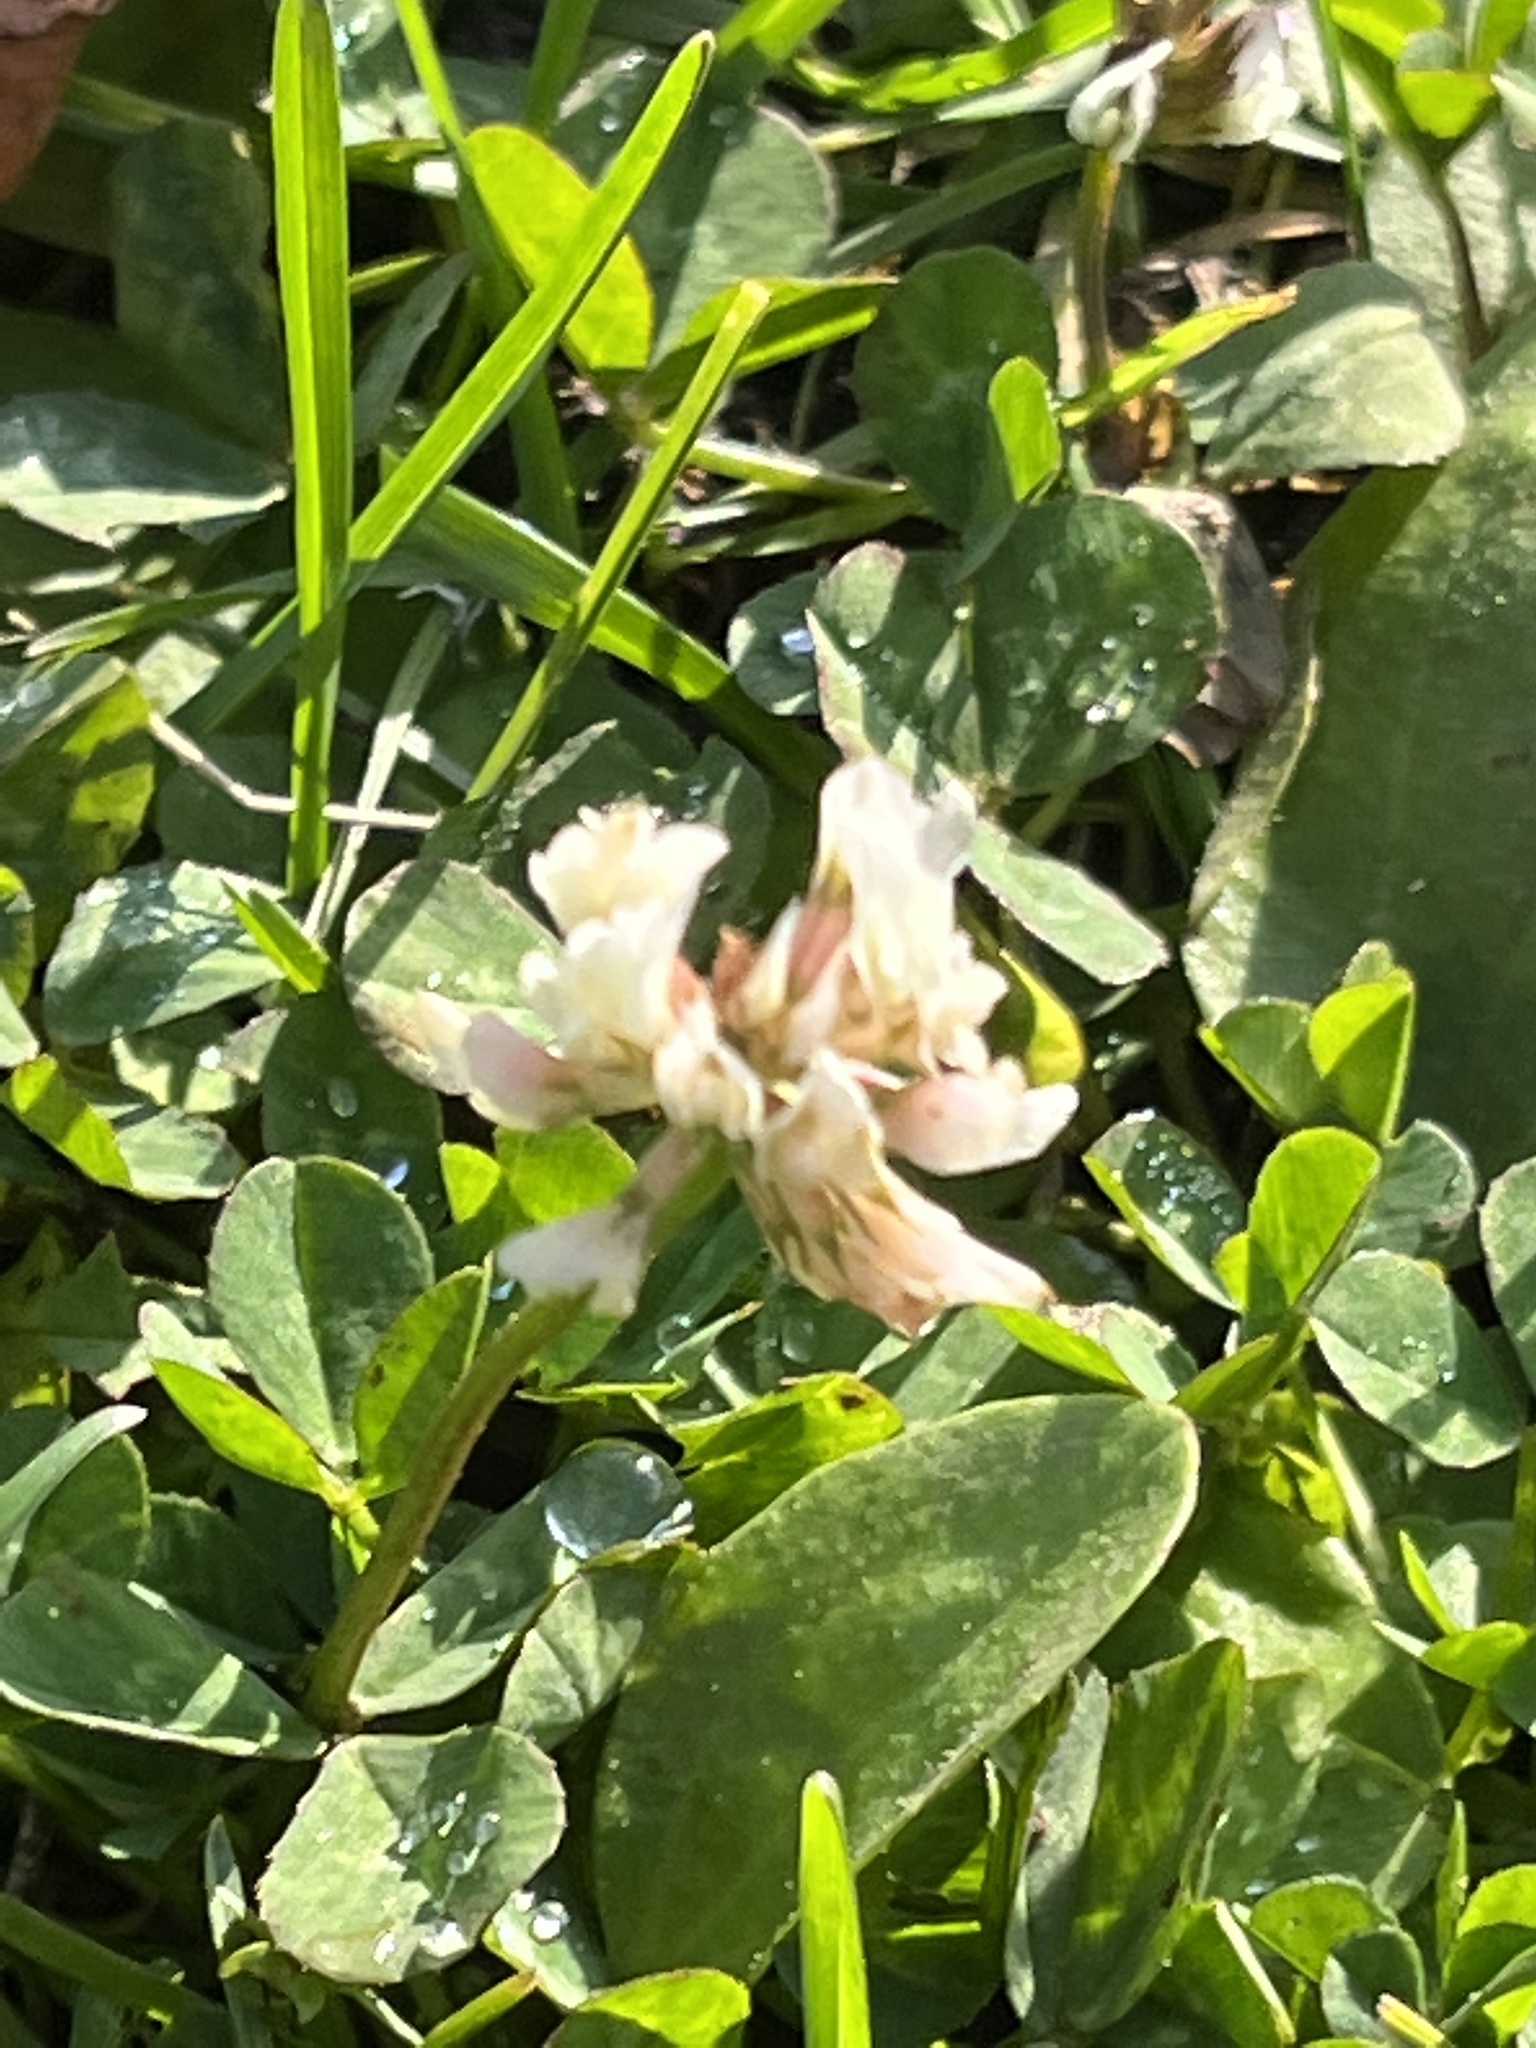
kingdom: Plantae
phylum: Tracheophyta
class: Magnoliopsida
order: Fabales
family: Fabaceae
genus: Trifolium
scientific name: Trifolium repens
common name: White clover
